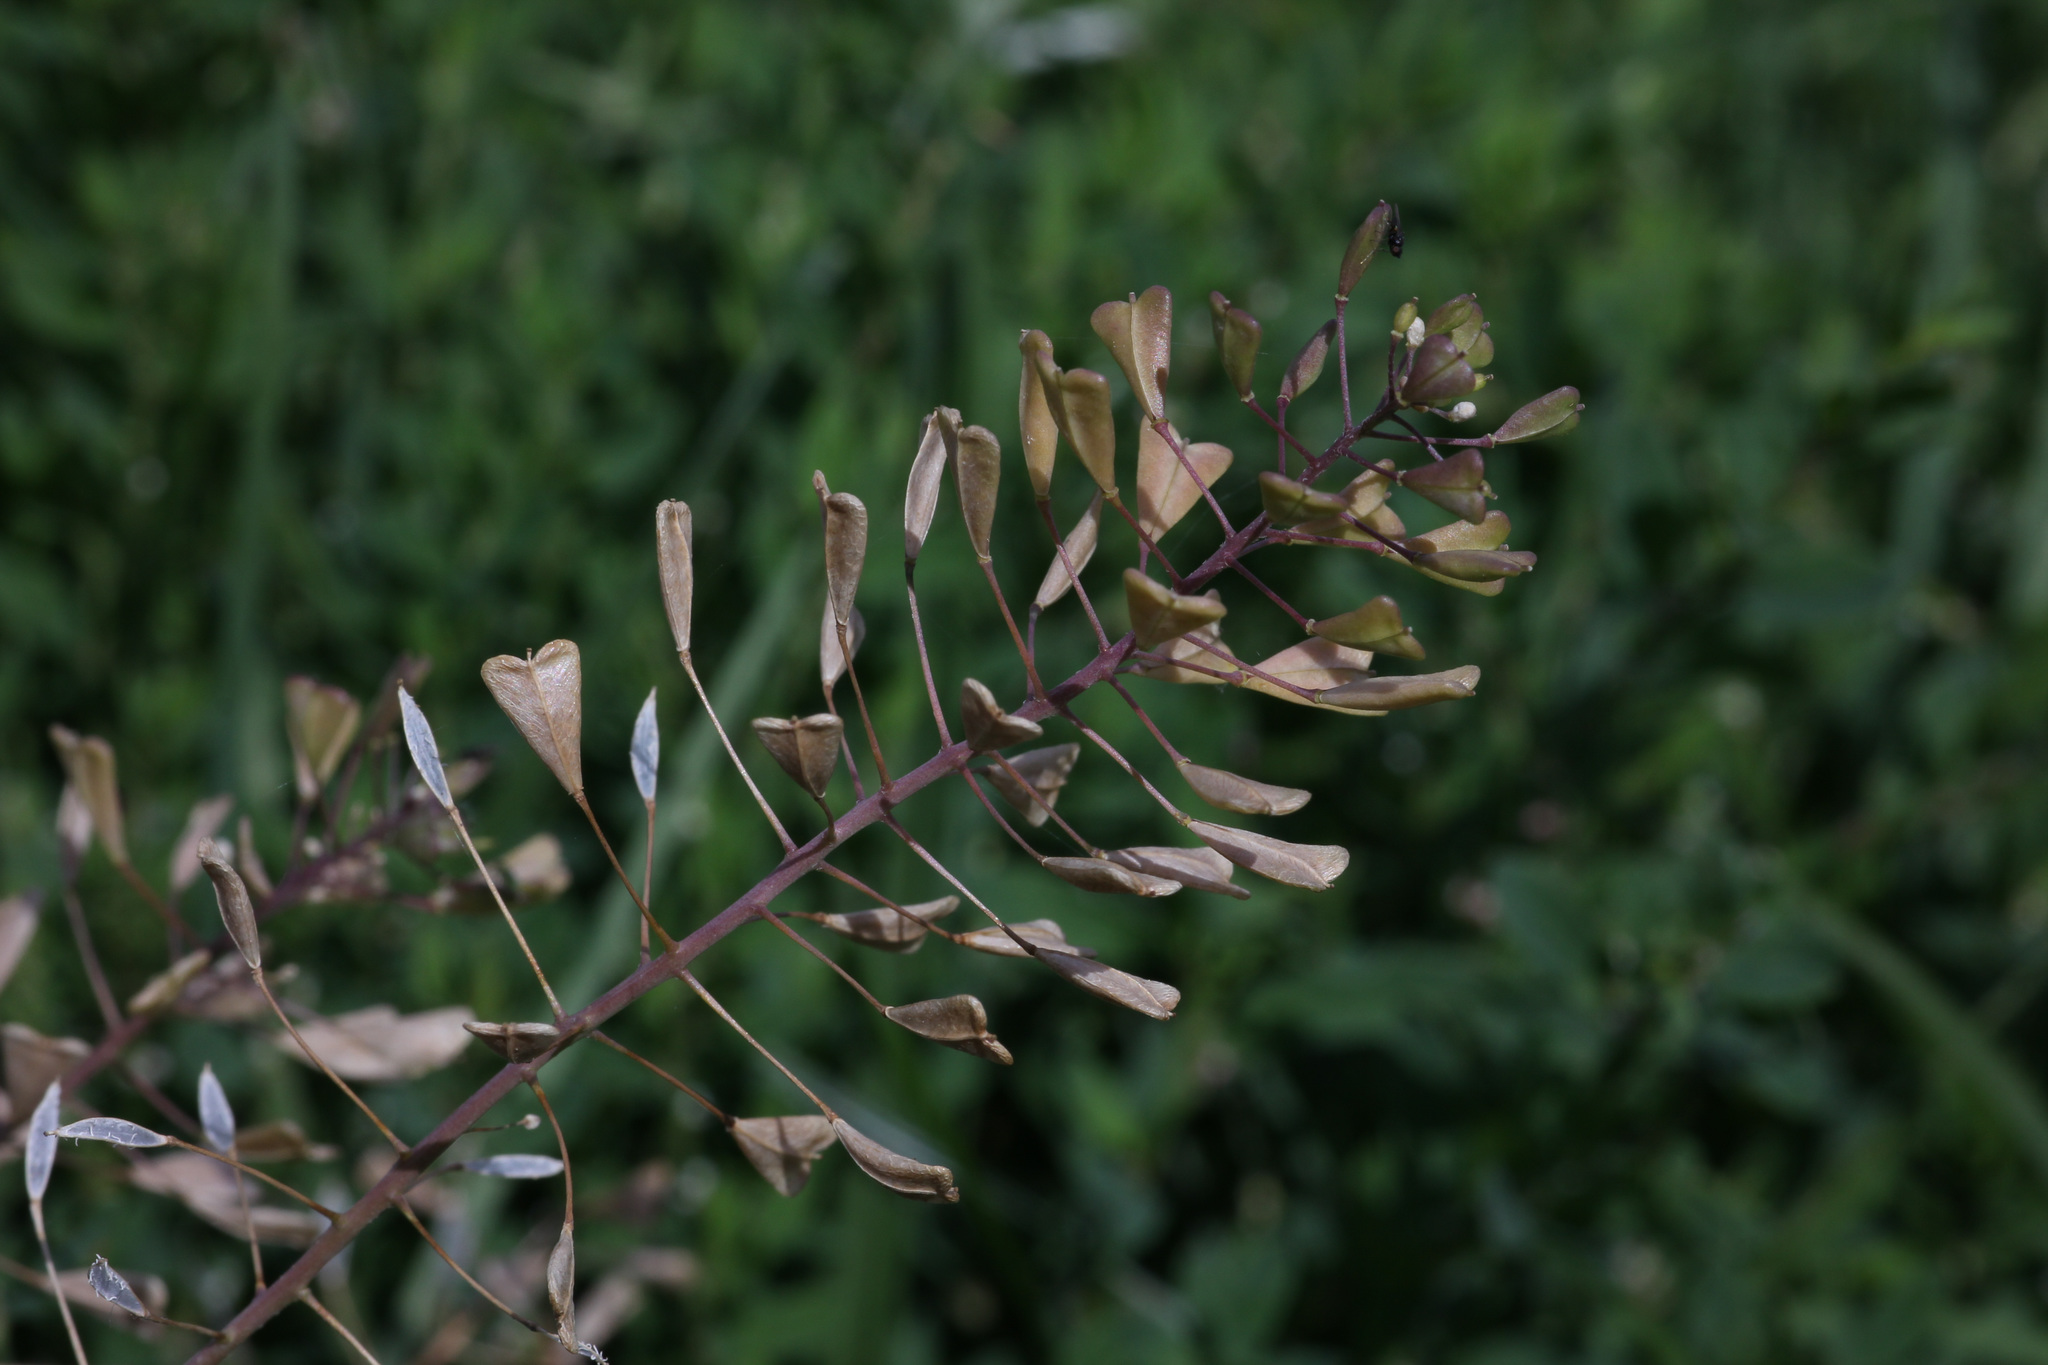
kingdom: Plantae
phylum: Tracheophyta
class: Magnoliopsida
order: Brassicales
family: Brassicaceae
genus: Capsella
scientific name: Capsella bursa-pastoris
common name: Shepherd's purse
